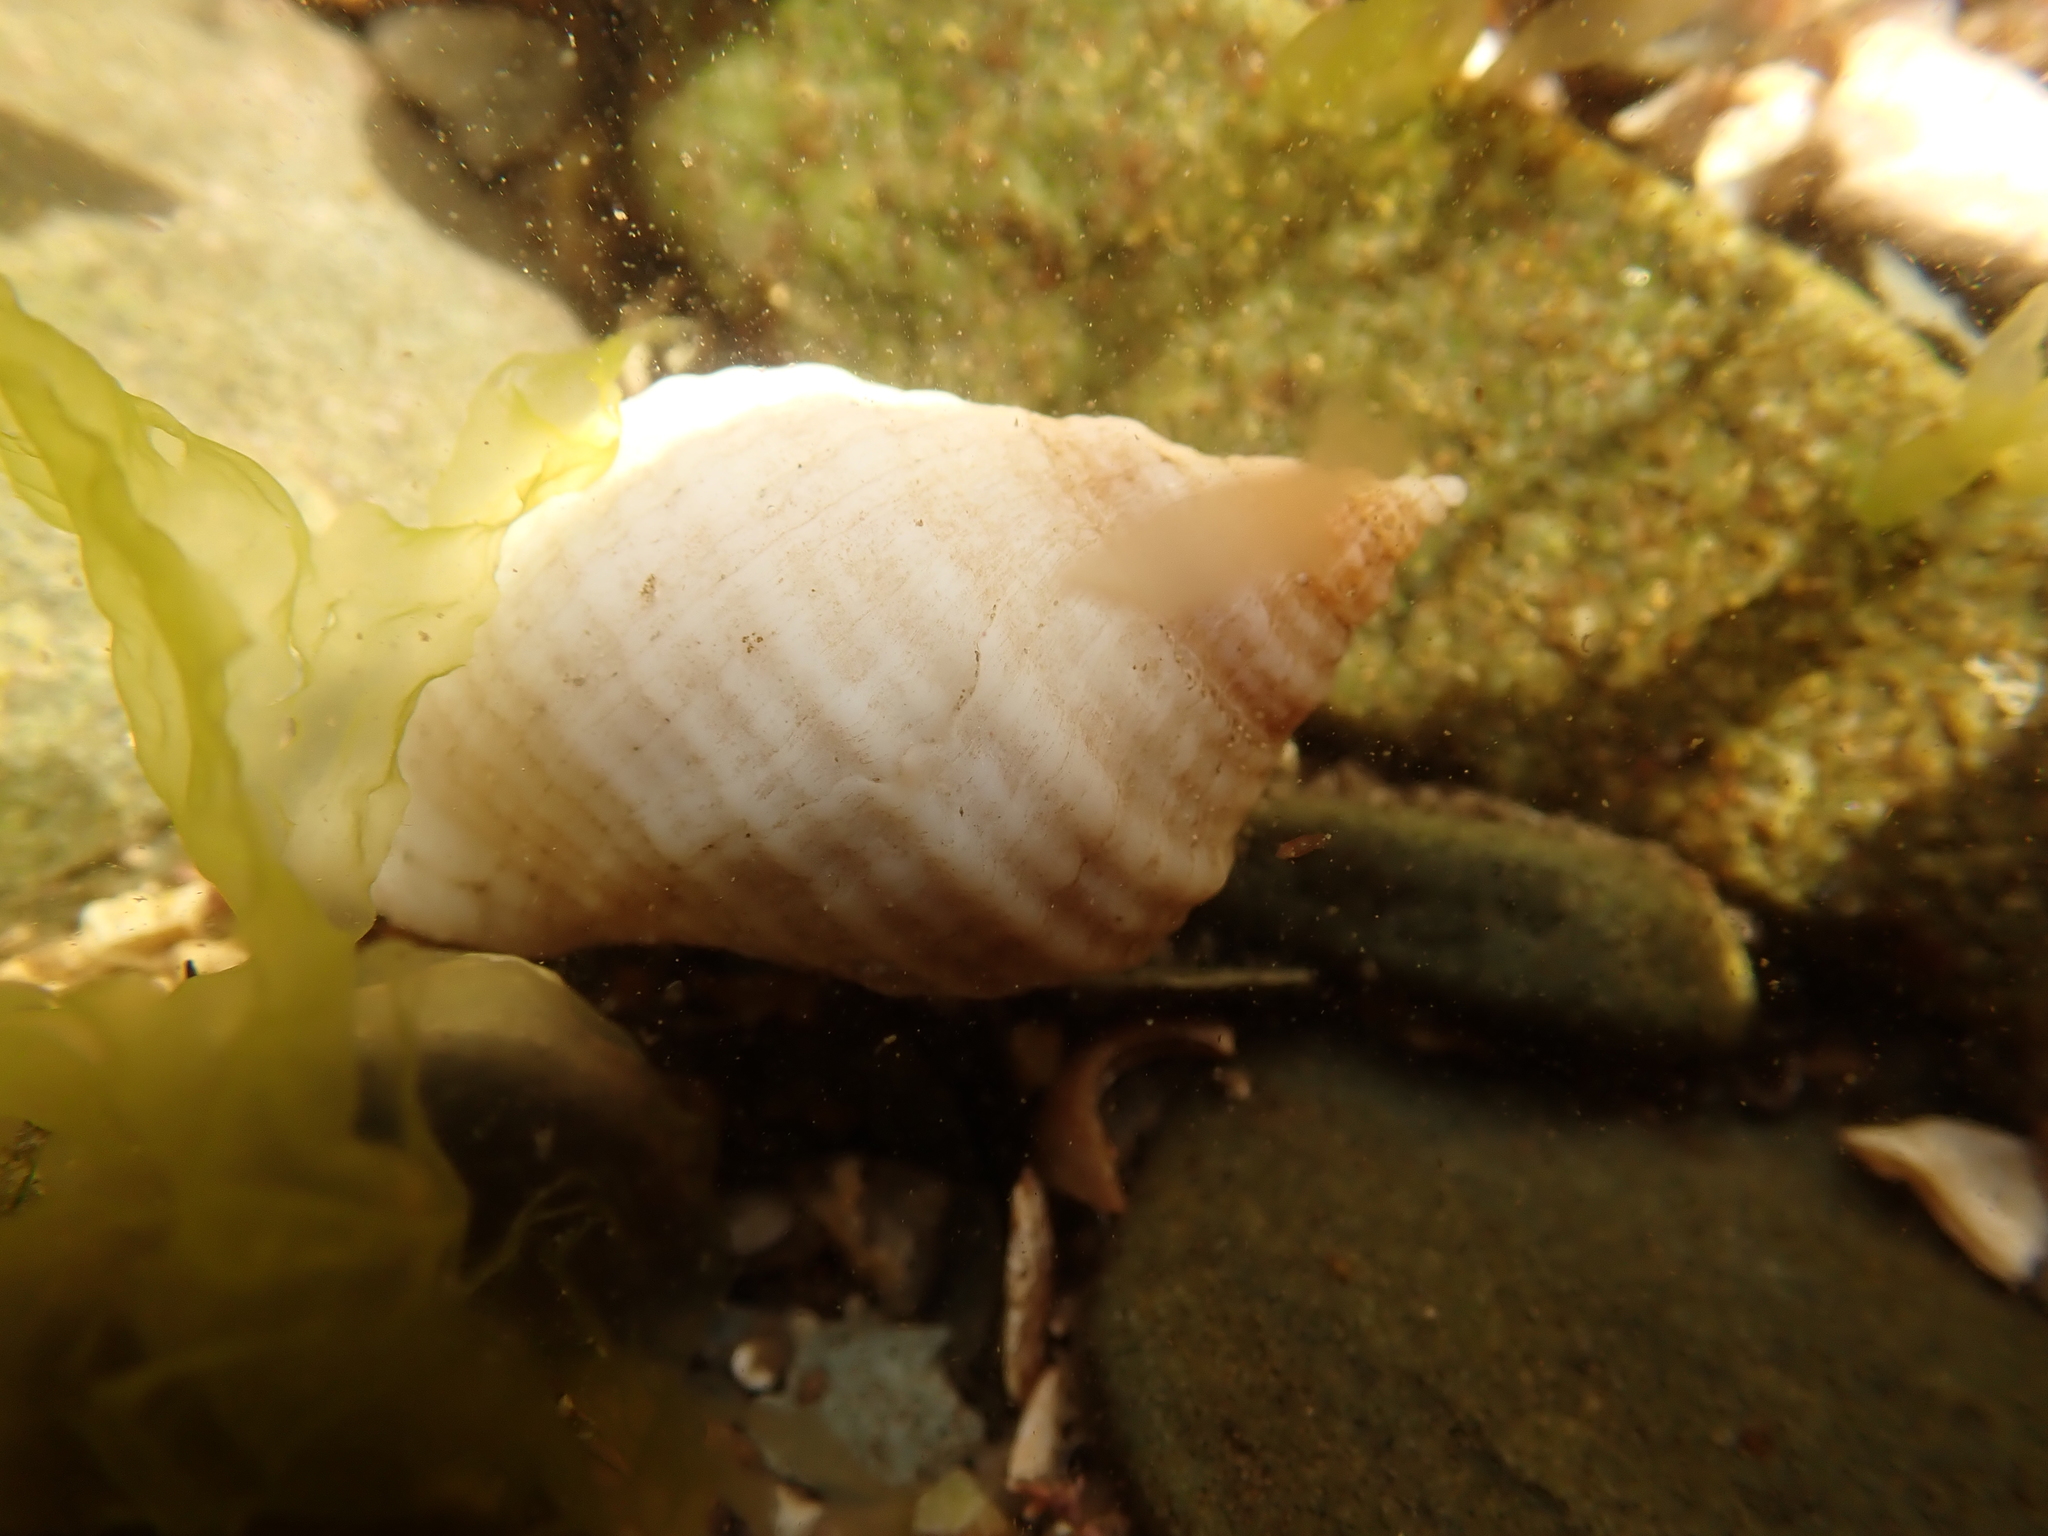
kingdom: Animalia
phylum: Mollusca
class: Gastropoda
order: Neogastropoda
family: Muricidae
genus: Nucella
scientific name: Nucella lapillus
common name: Dog whelk
